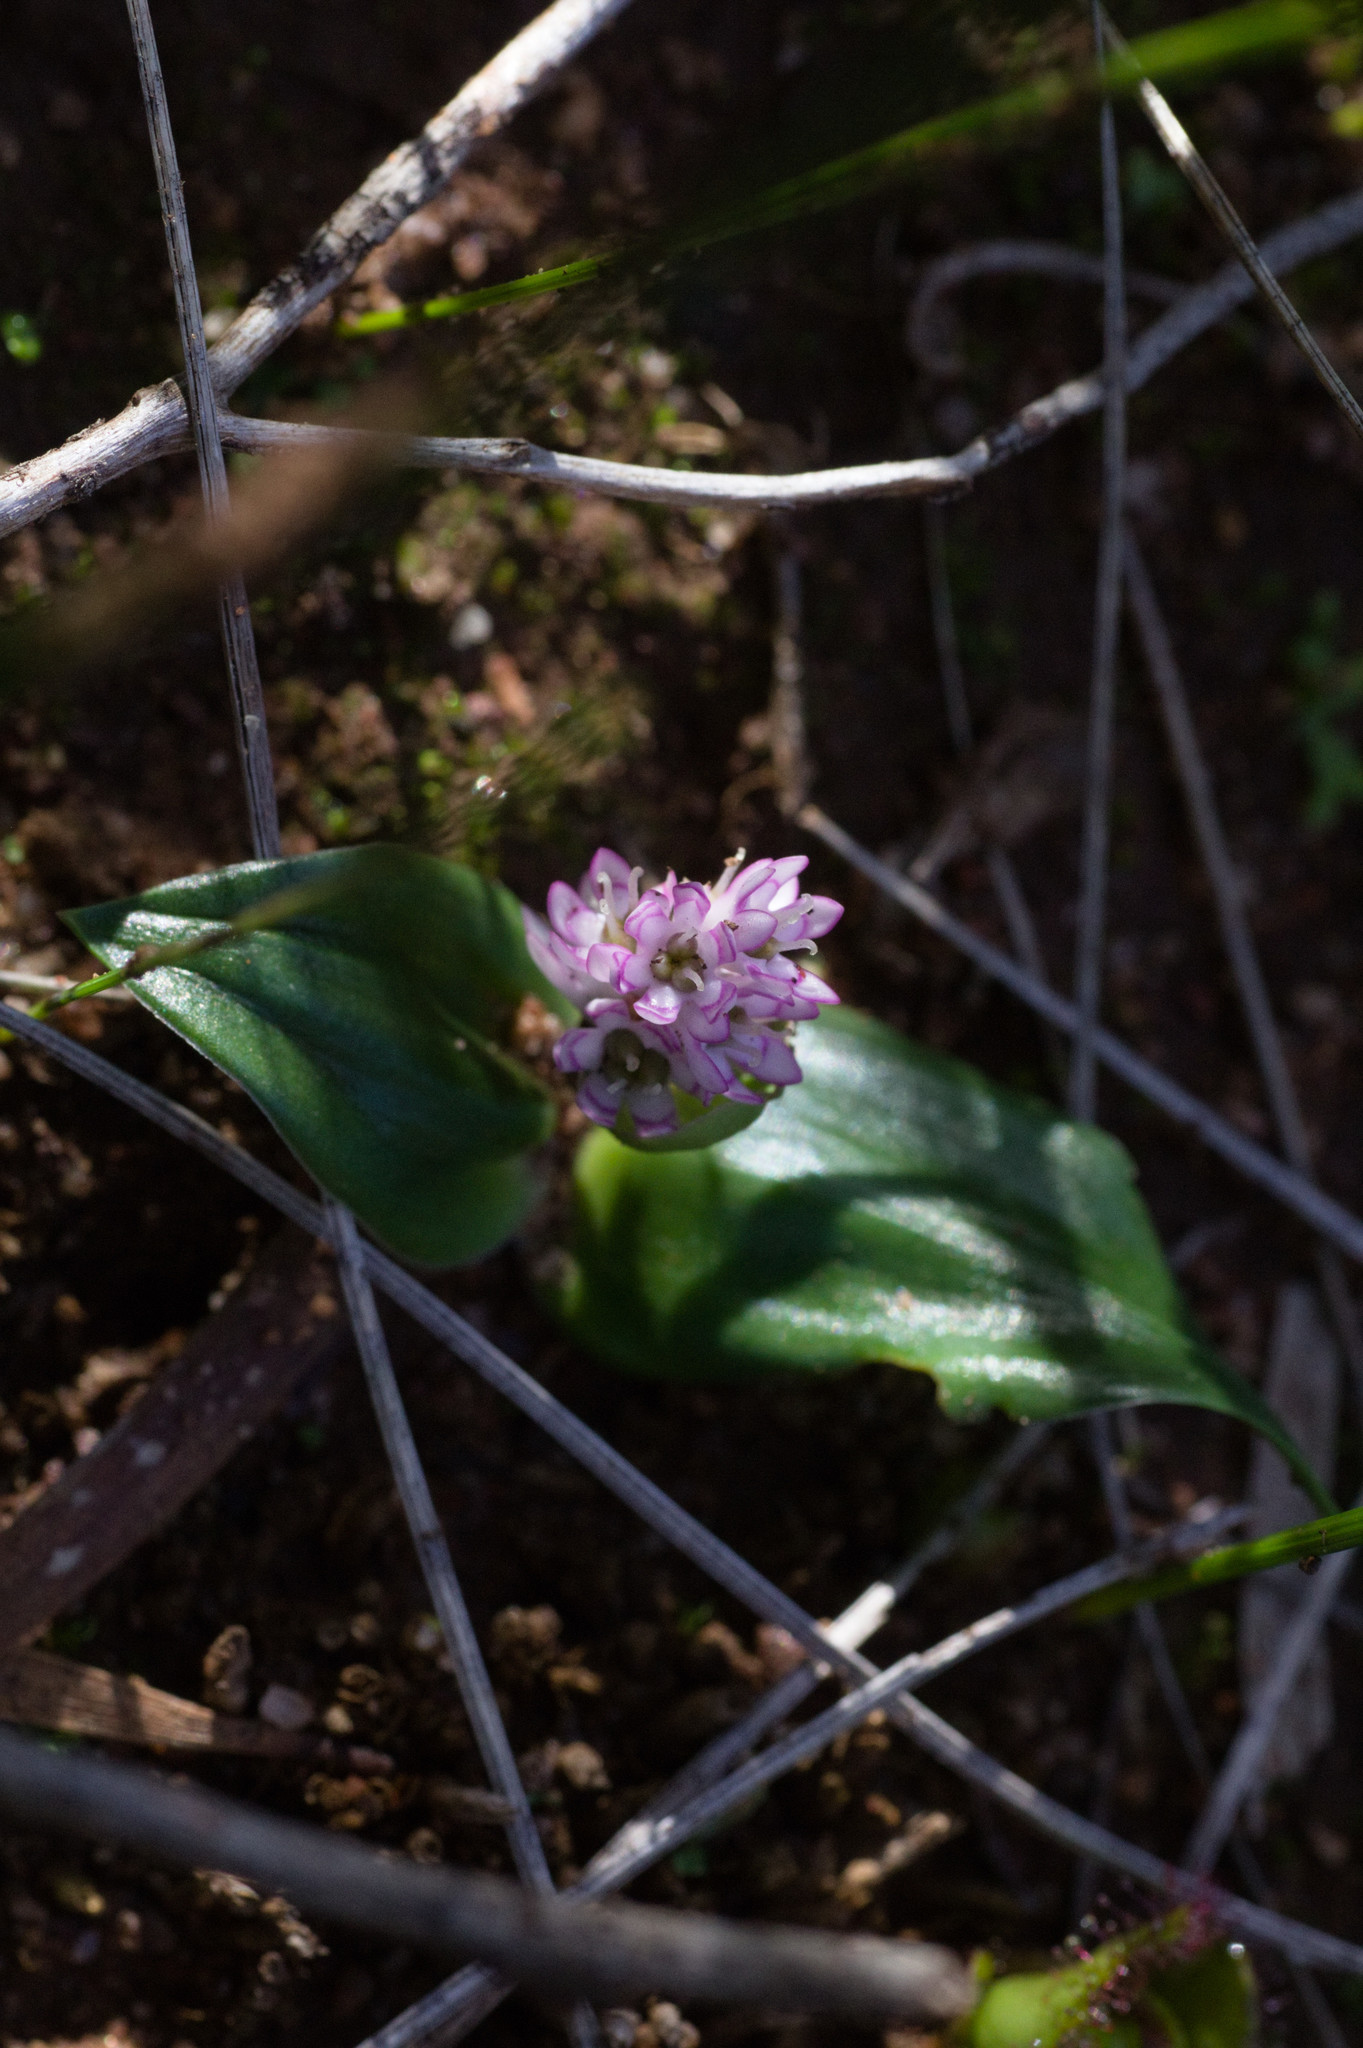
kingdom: Plantae
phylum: Tracheophyta
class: Liliopsida
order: Liliales
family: Colchicaceae
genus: Wurmbea
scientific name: Wurmbea drummondii
